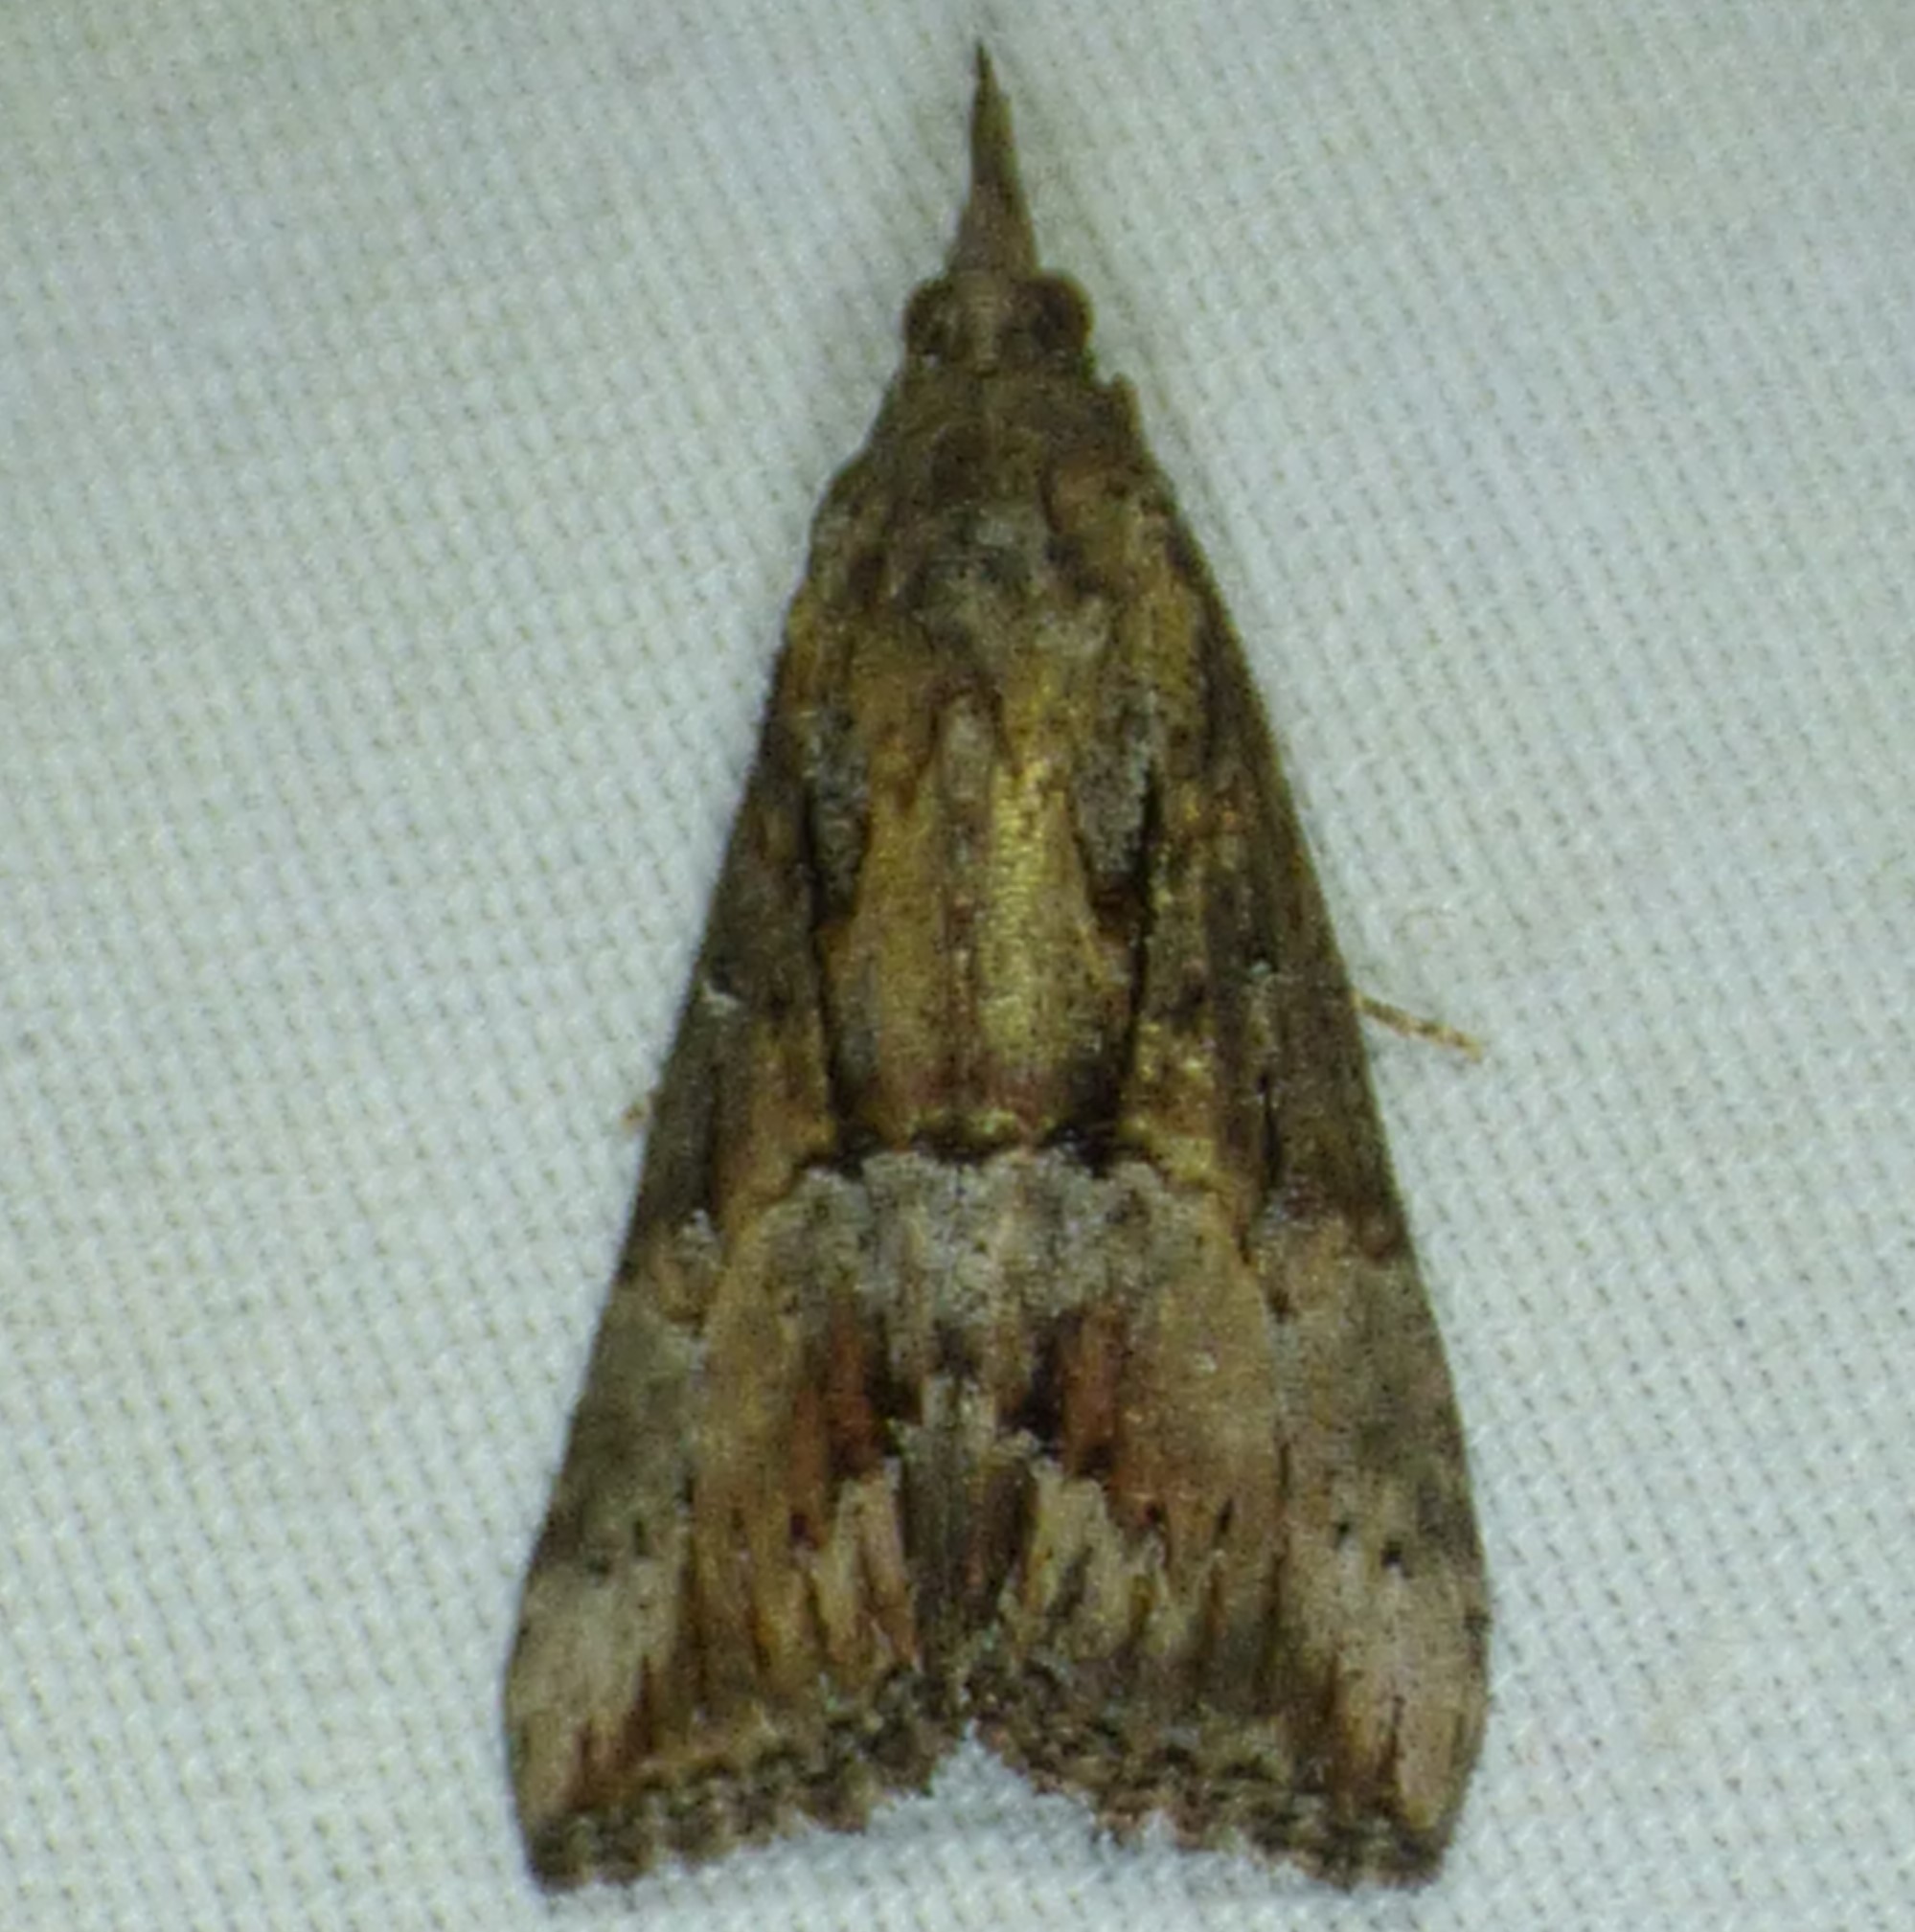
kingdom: Animalia
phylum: Arthropoda
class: Insecta
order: Lepidoptera
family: Erebidae
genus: Hypena
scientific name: Hypena scabra
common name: Green cloverworm
